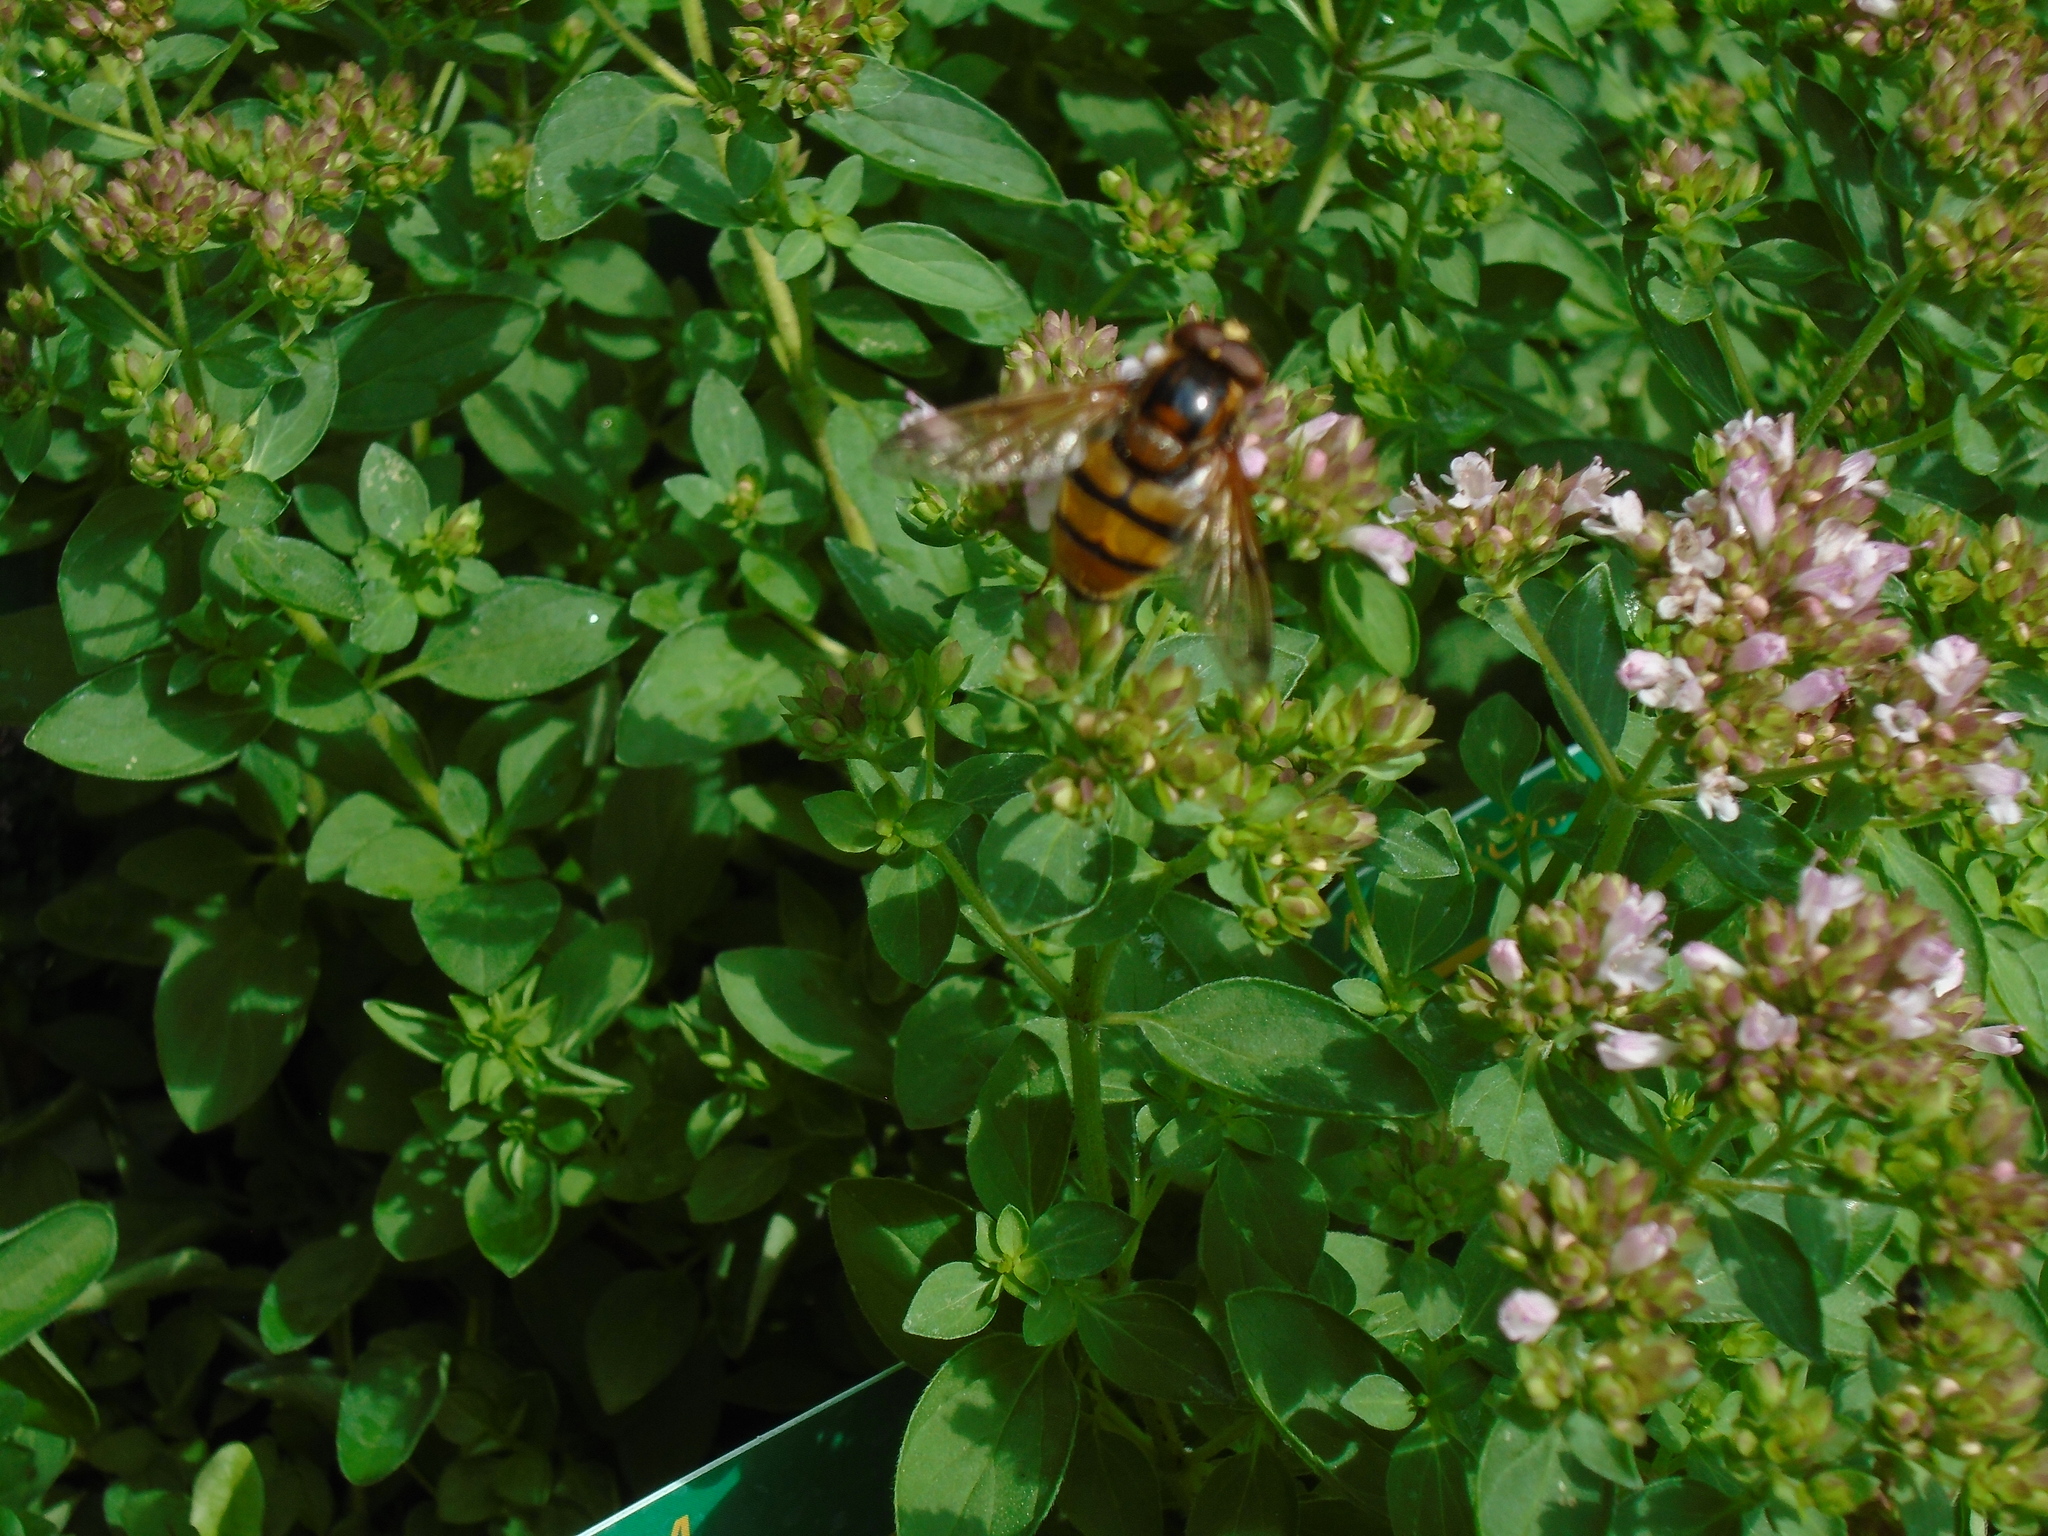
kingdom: Animalia
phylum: Arthropoda
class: Insecta
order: Diptera
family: Syrphidae
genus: Volucella
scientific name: Volucella inanis
